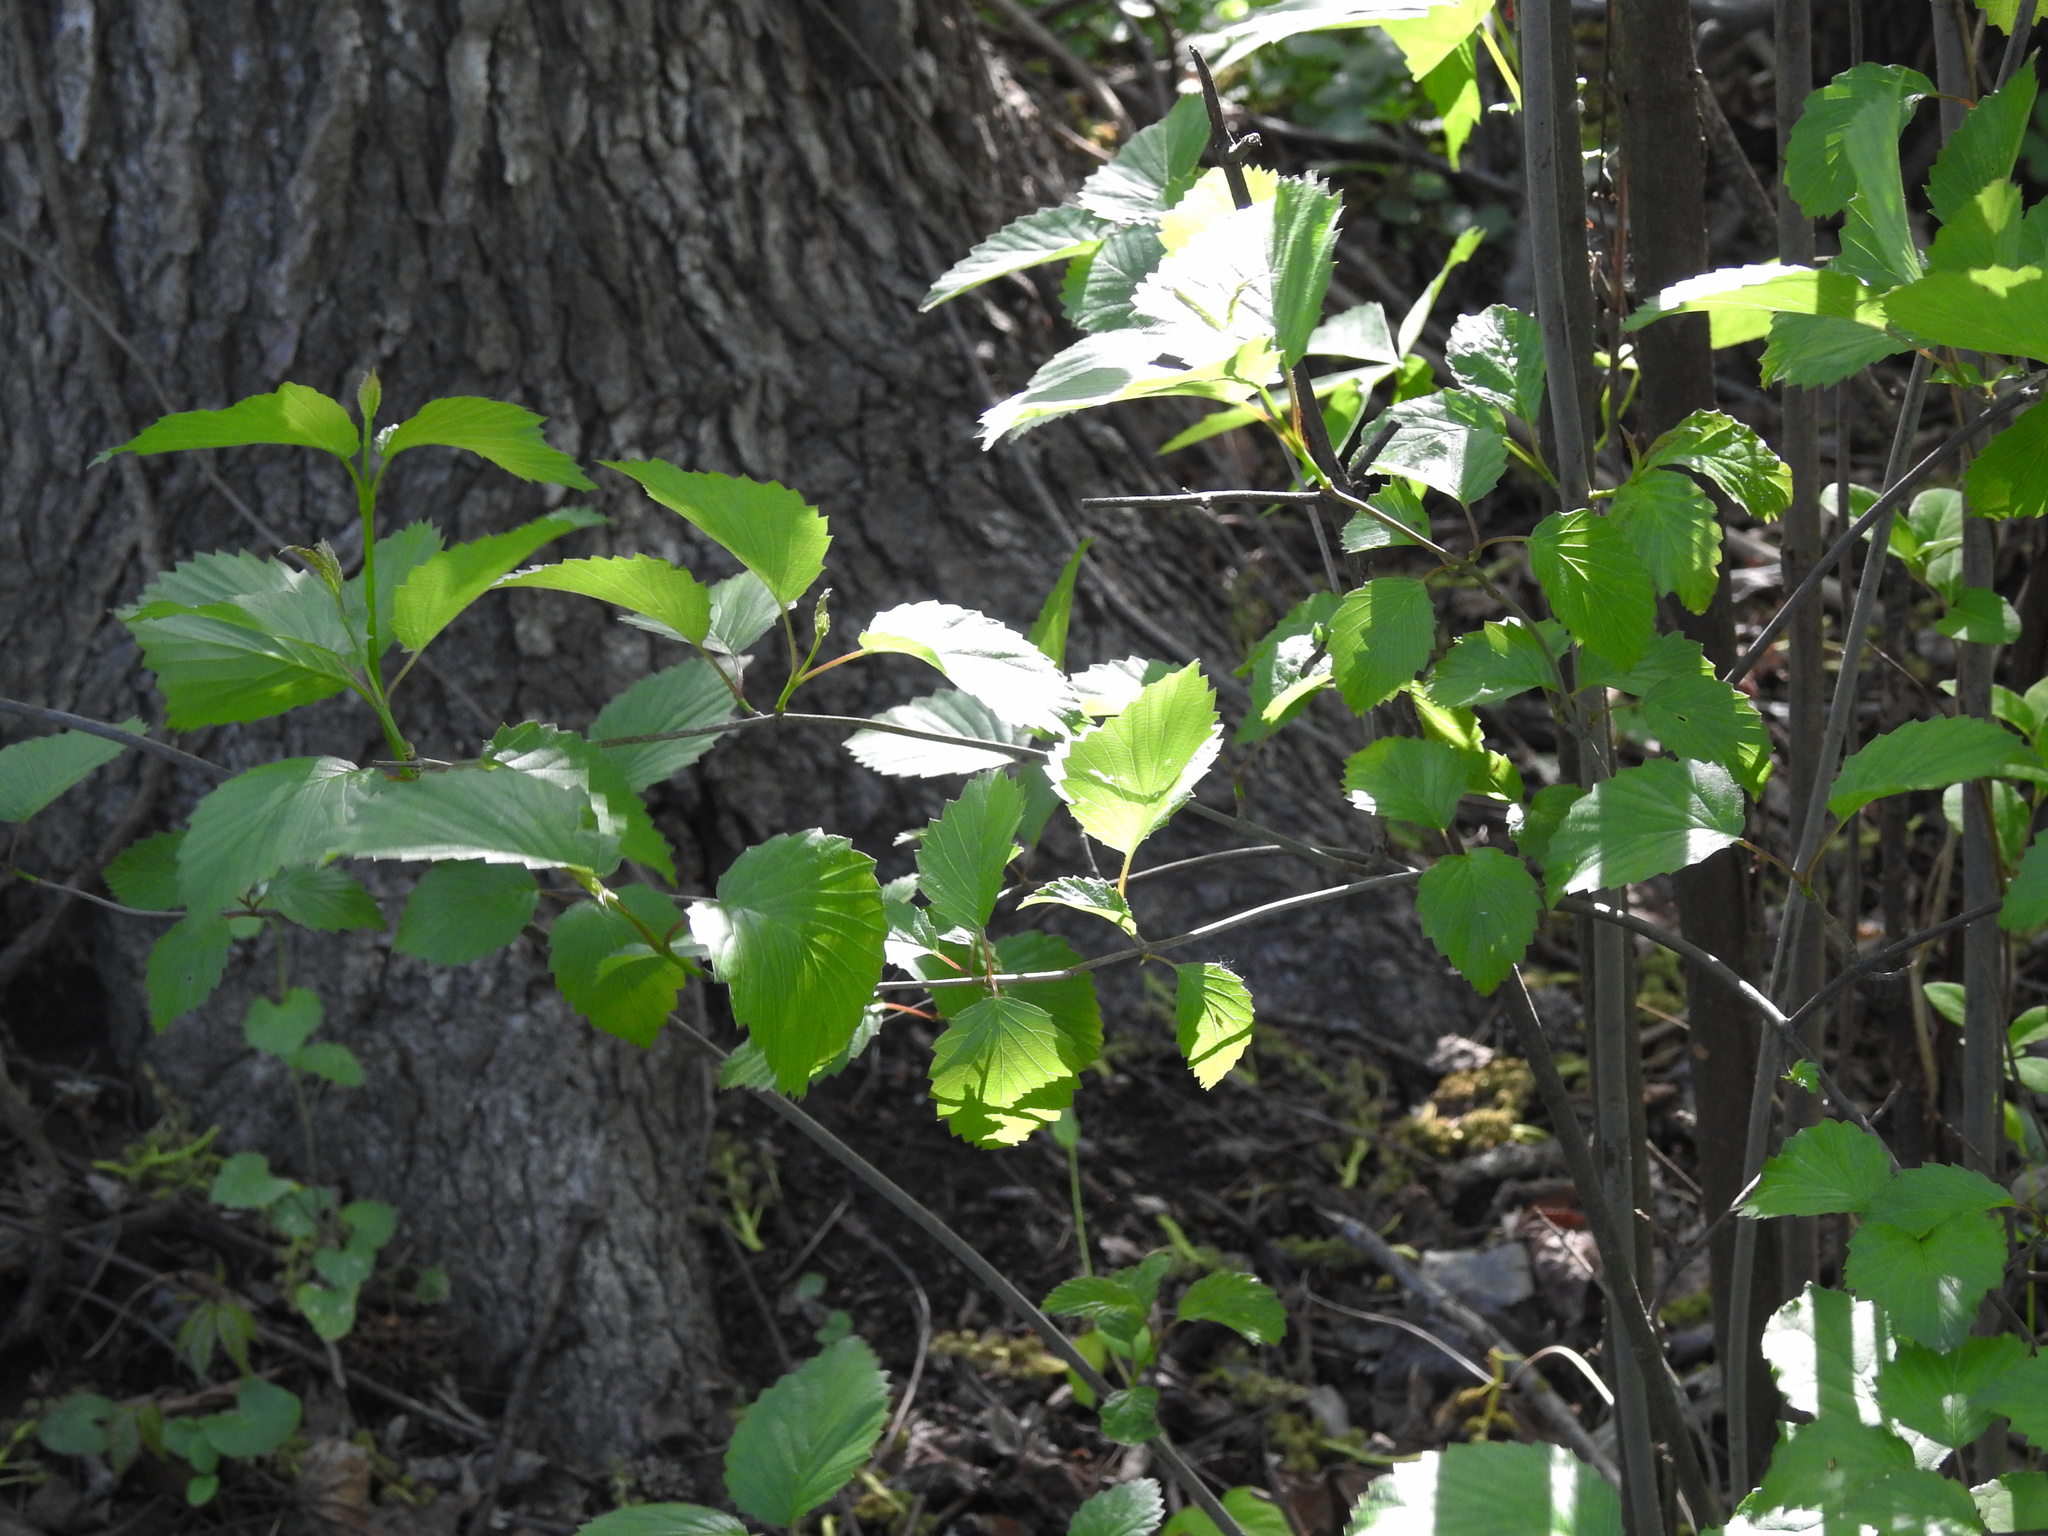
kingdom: Plantae
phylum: Tracheophyta
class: Magnoliopsida
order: Dipsacales
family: Viburnaceae
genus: Viburnum
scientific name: Viburnum dentatum
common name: Arrow-wood
